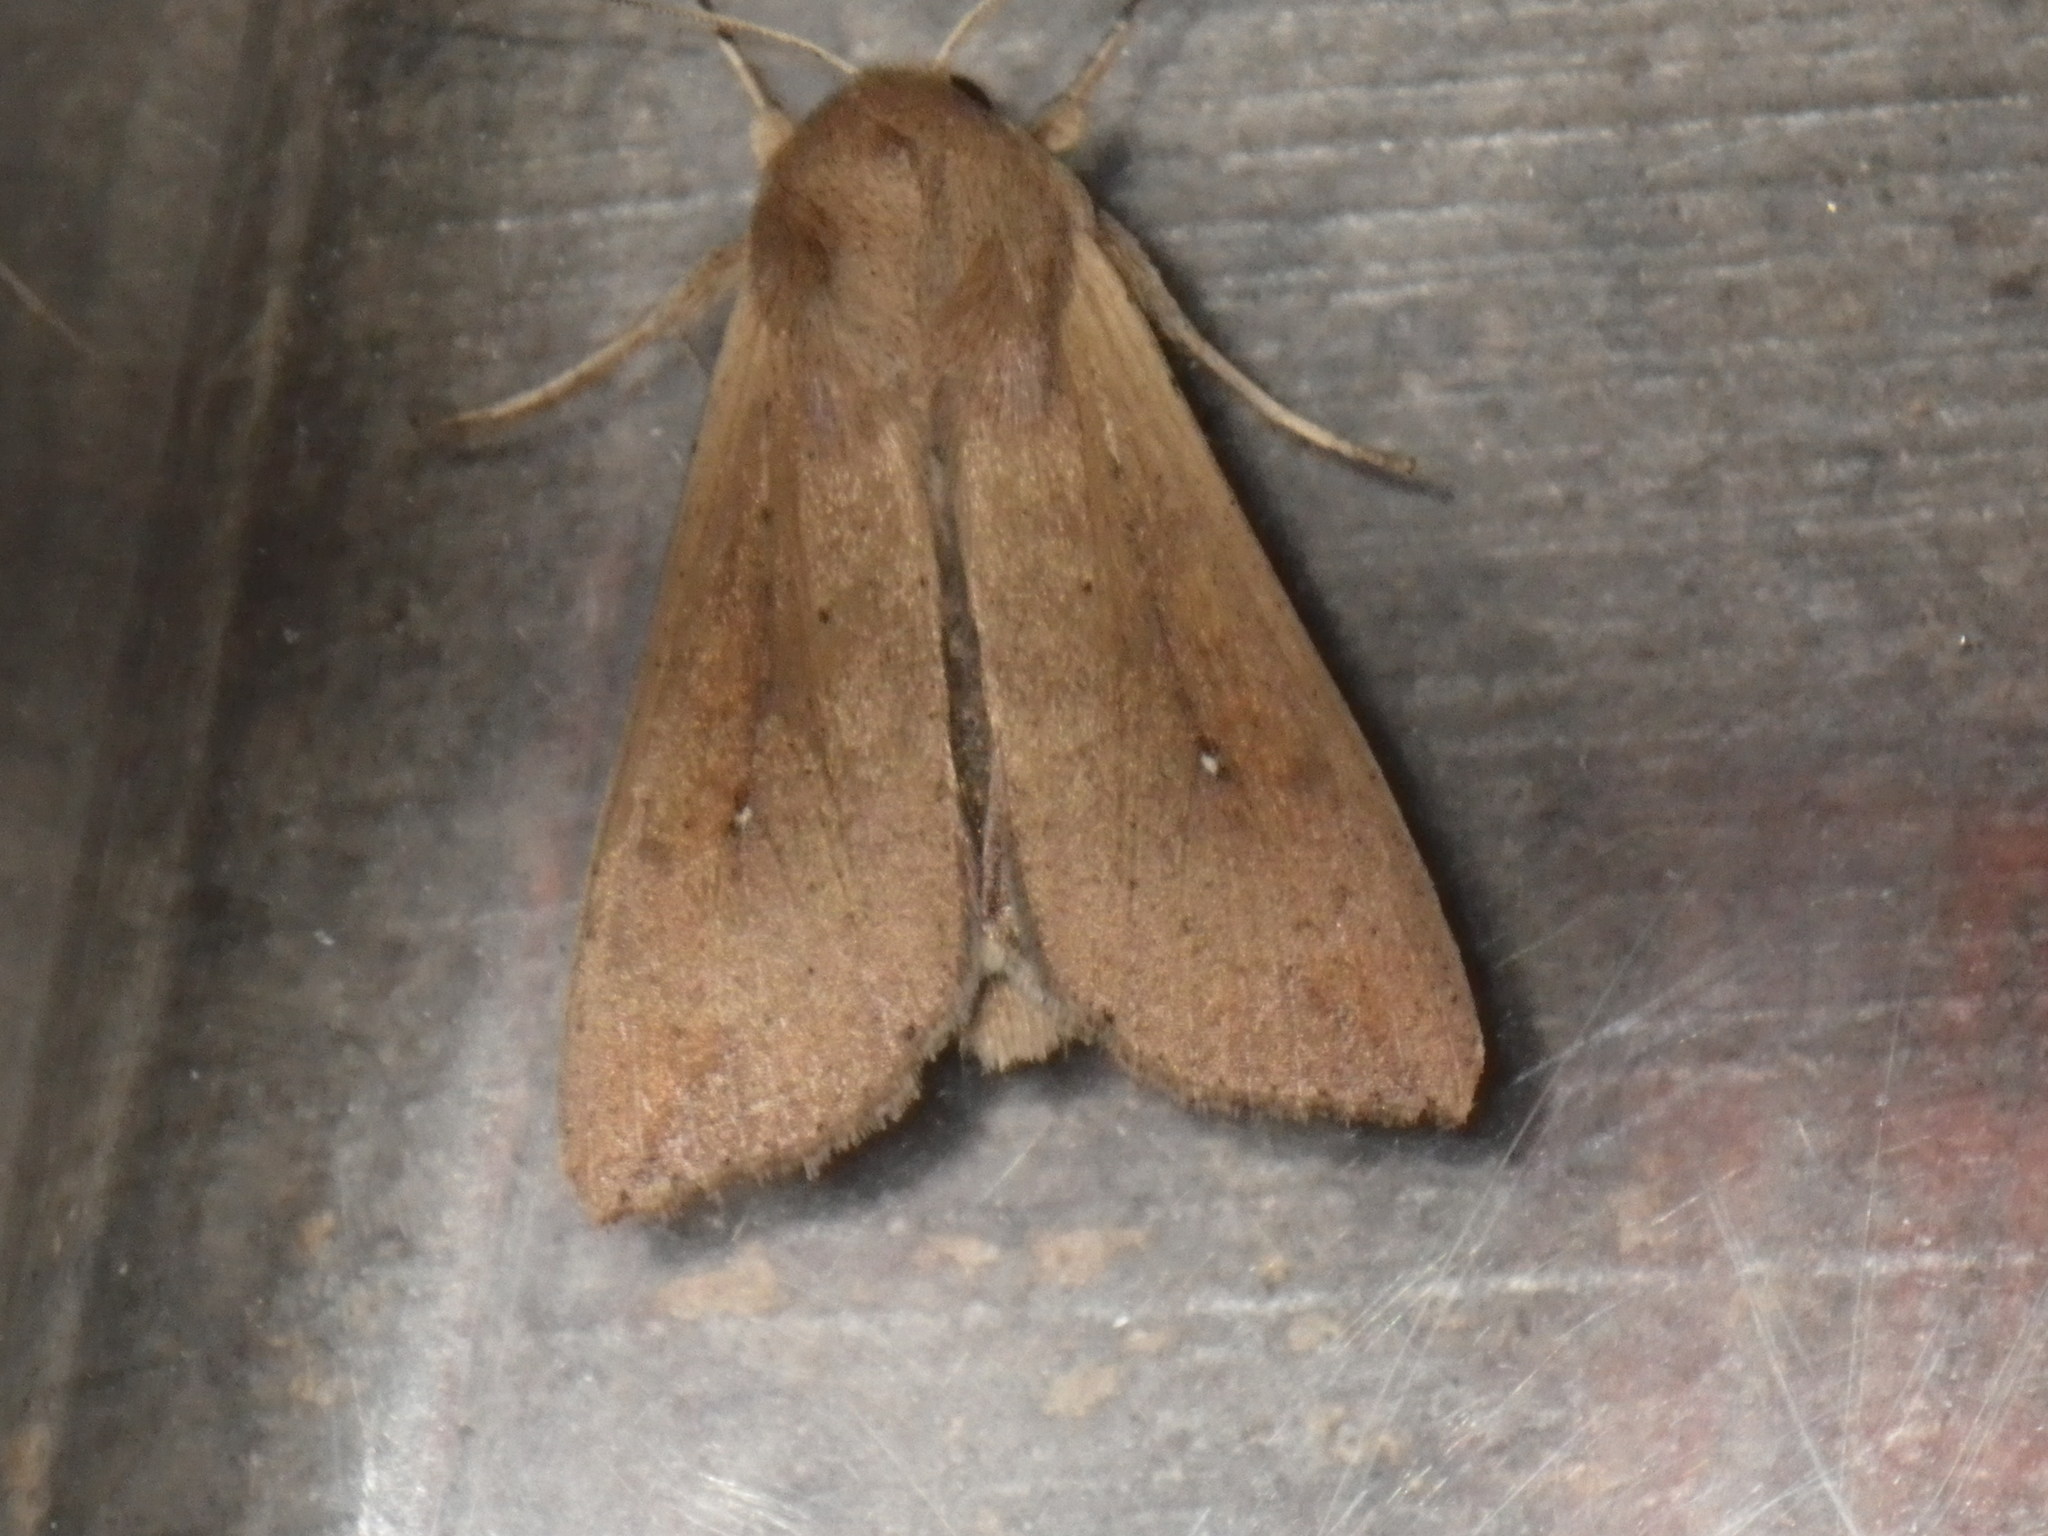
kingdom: Animalia
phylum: Arthropoda
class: Insecta
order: Lepidoptera
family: Noctuidae
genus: Mythimna
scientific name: Mythimna unipuncta
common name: White-speck
